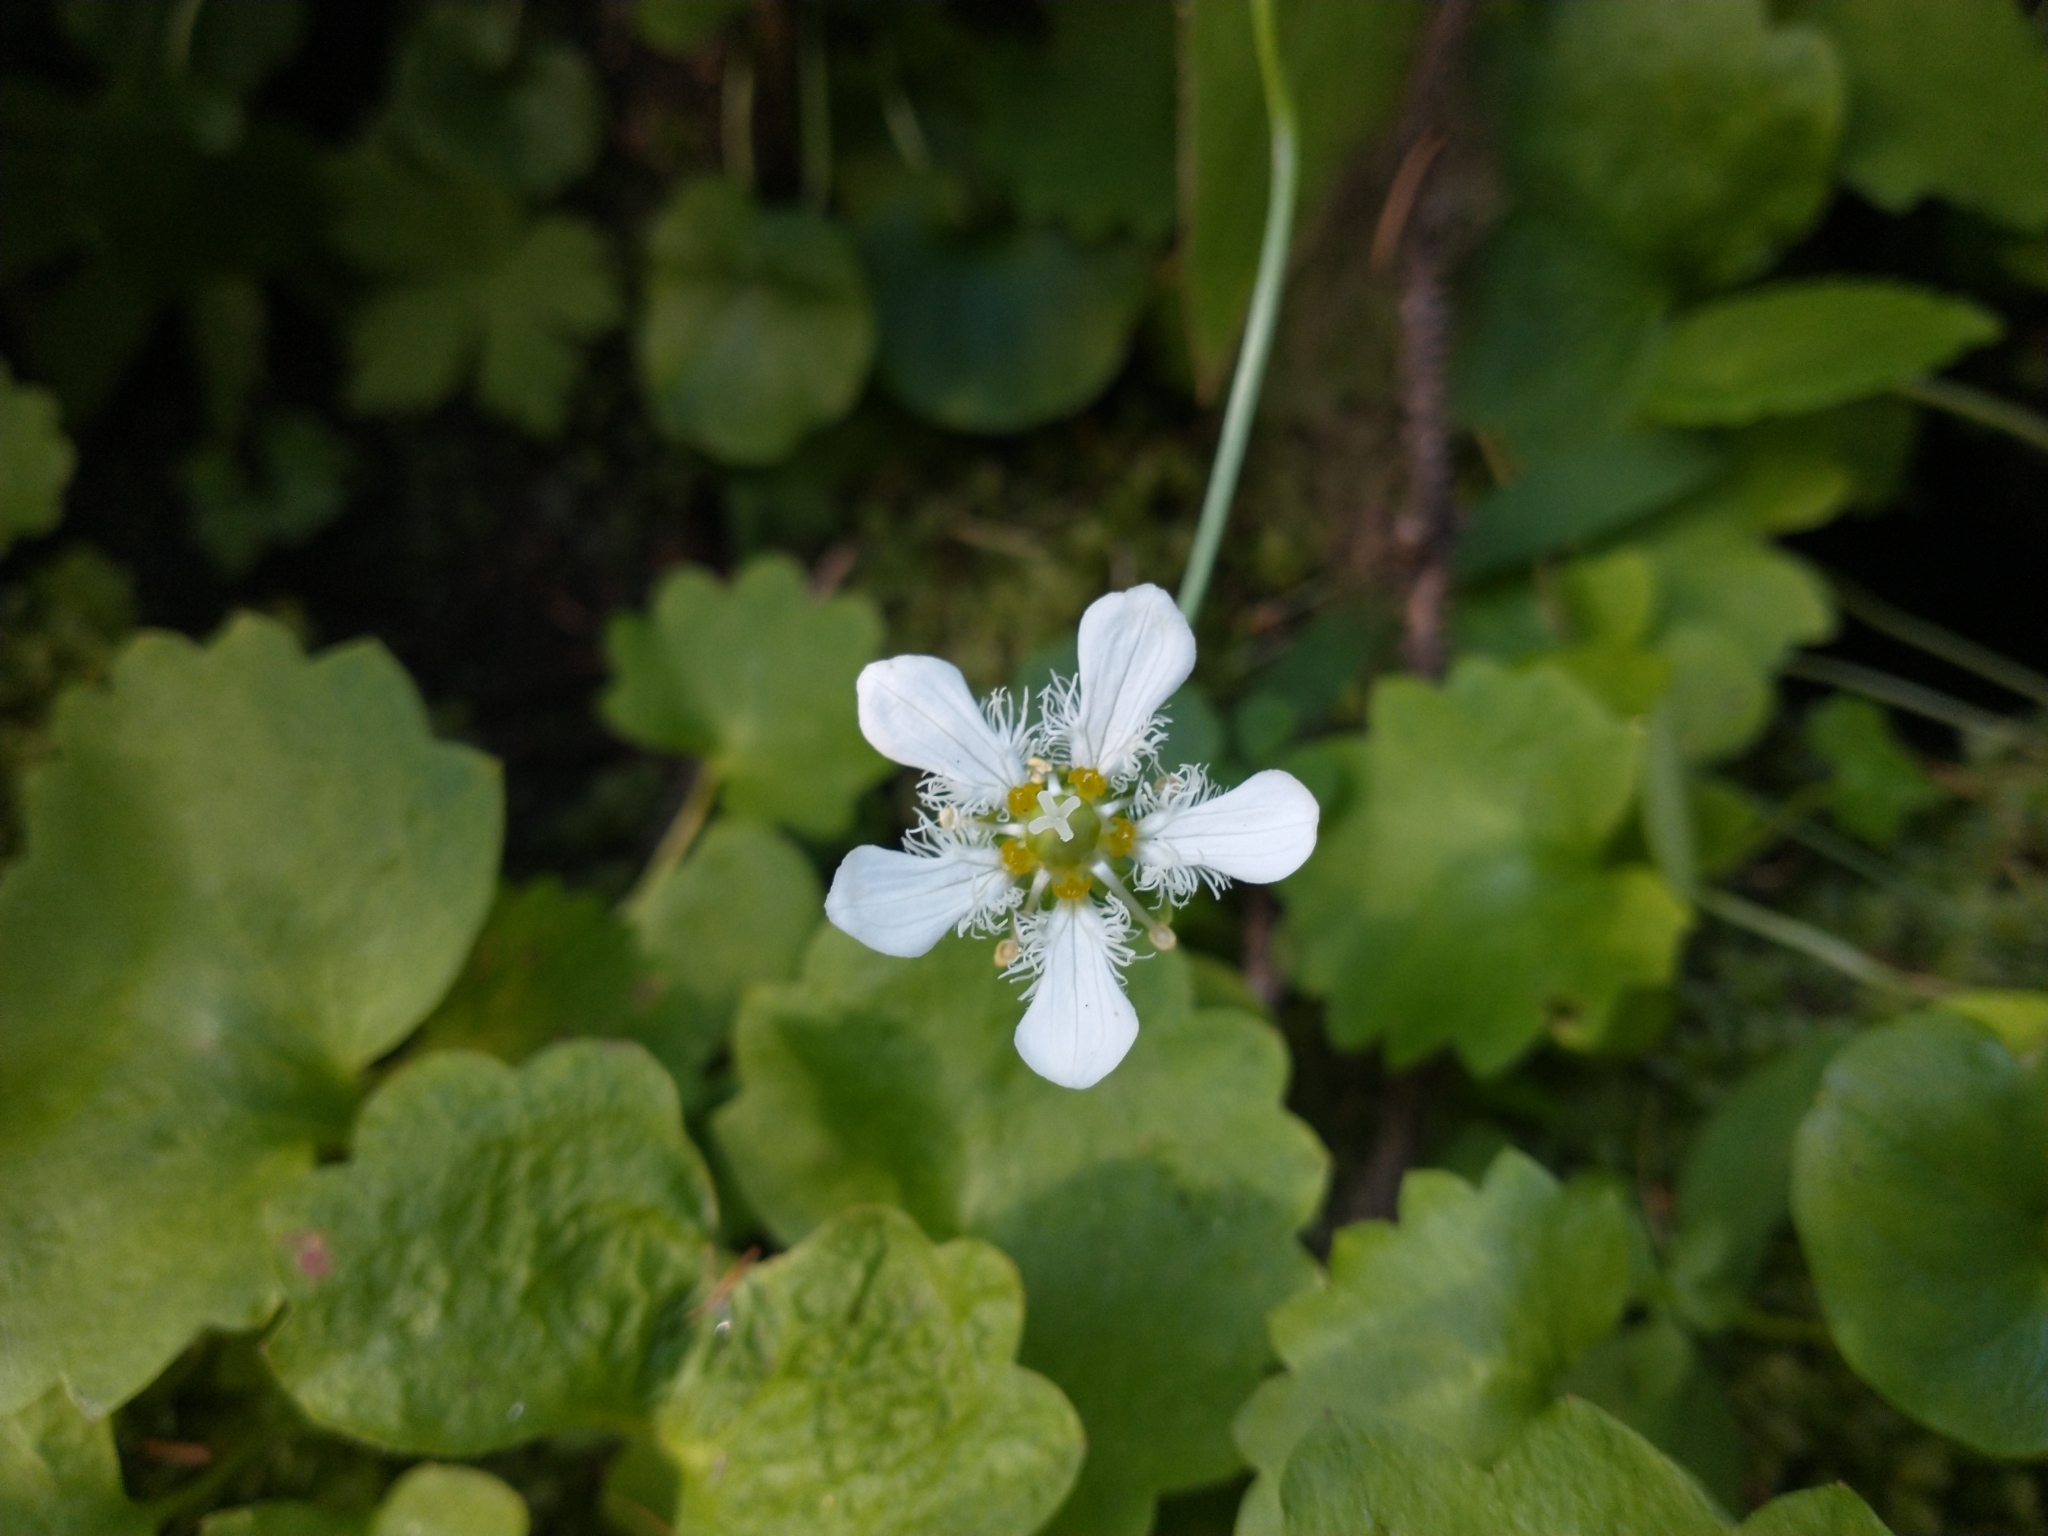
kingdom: Plantae
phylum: Tracheophyta
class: Magnoliopsida
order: Celastrales
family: Parnassiaceae
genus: Parnassia
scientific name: Parnassia fimbriata
